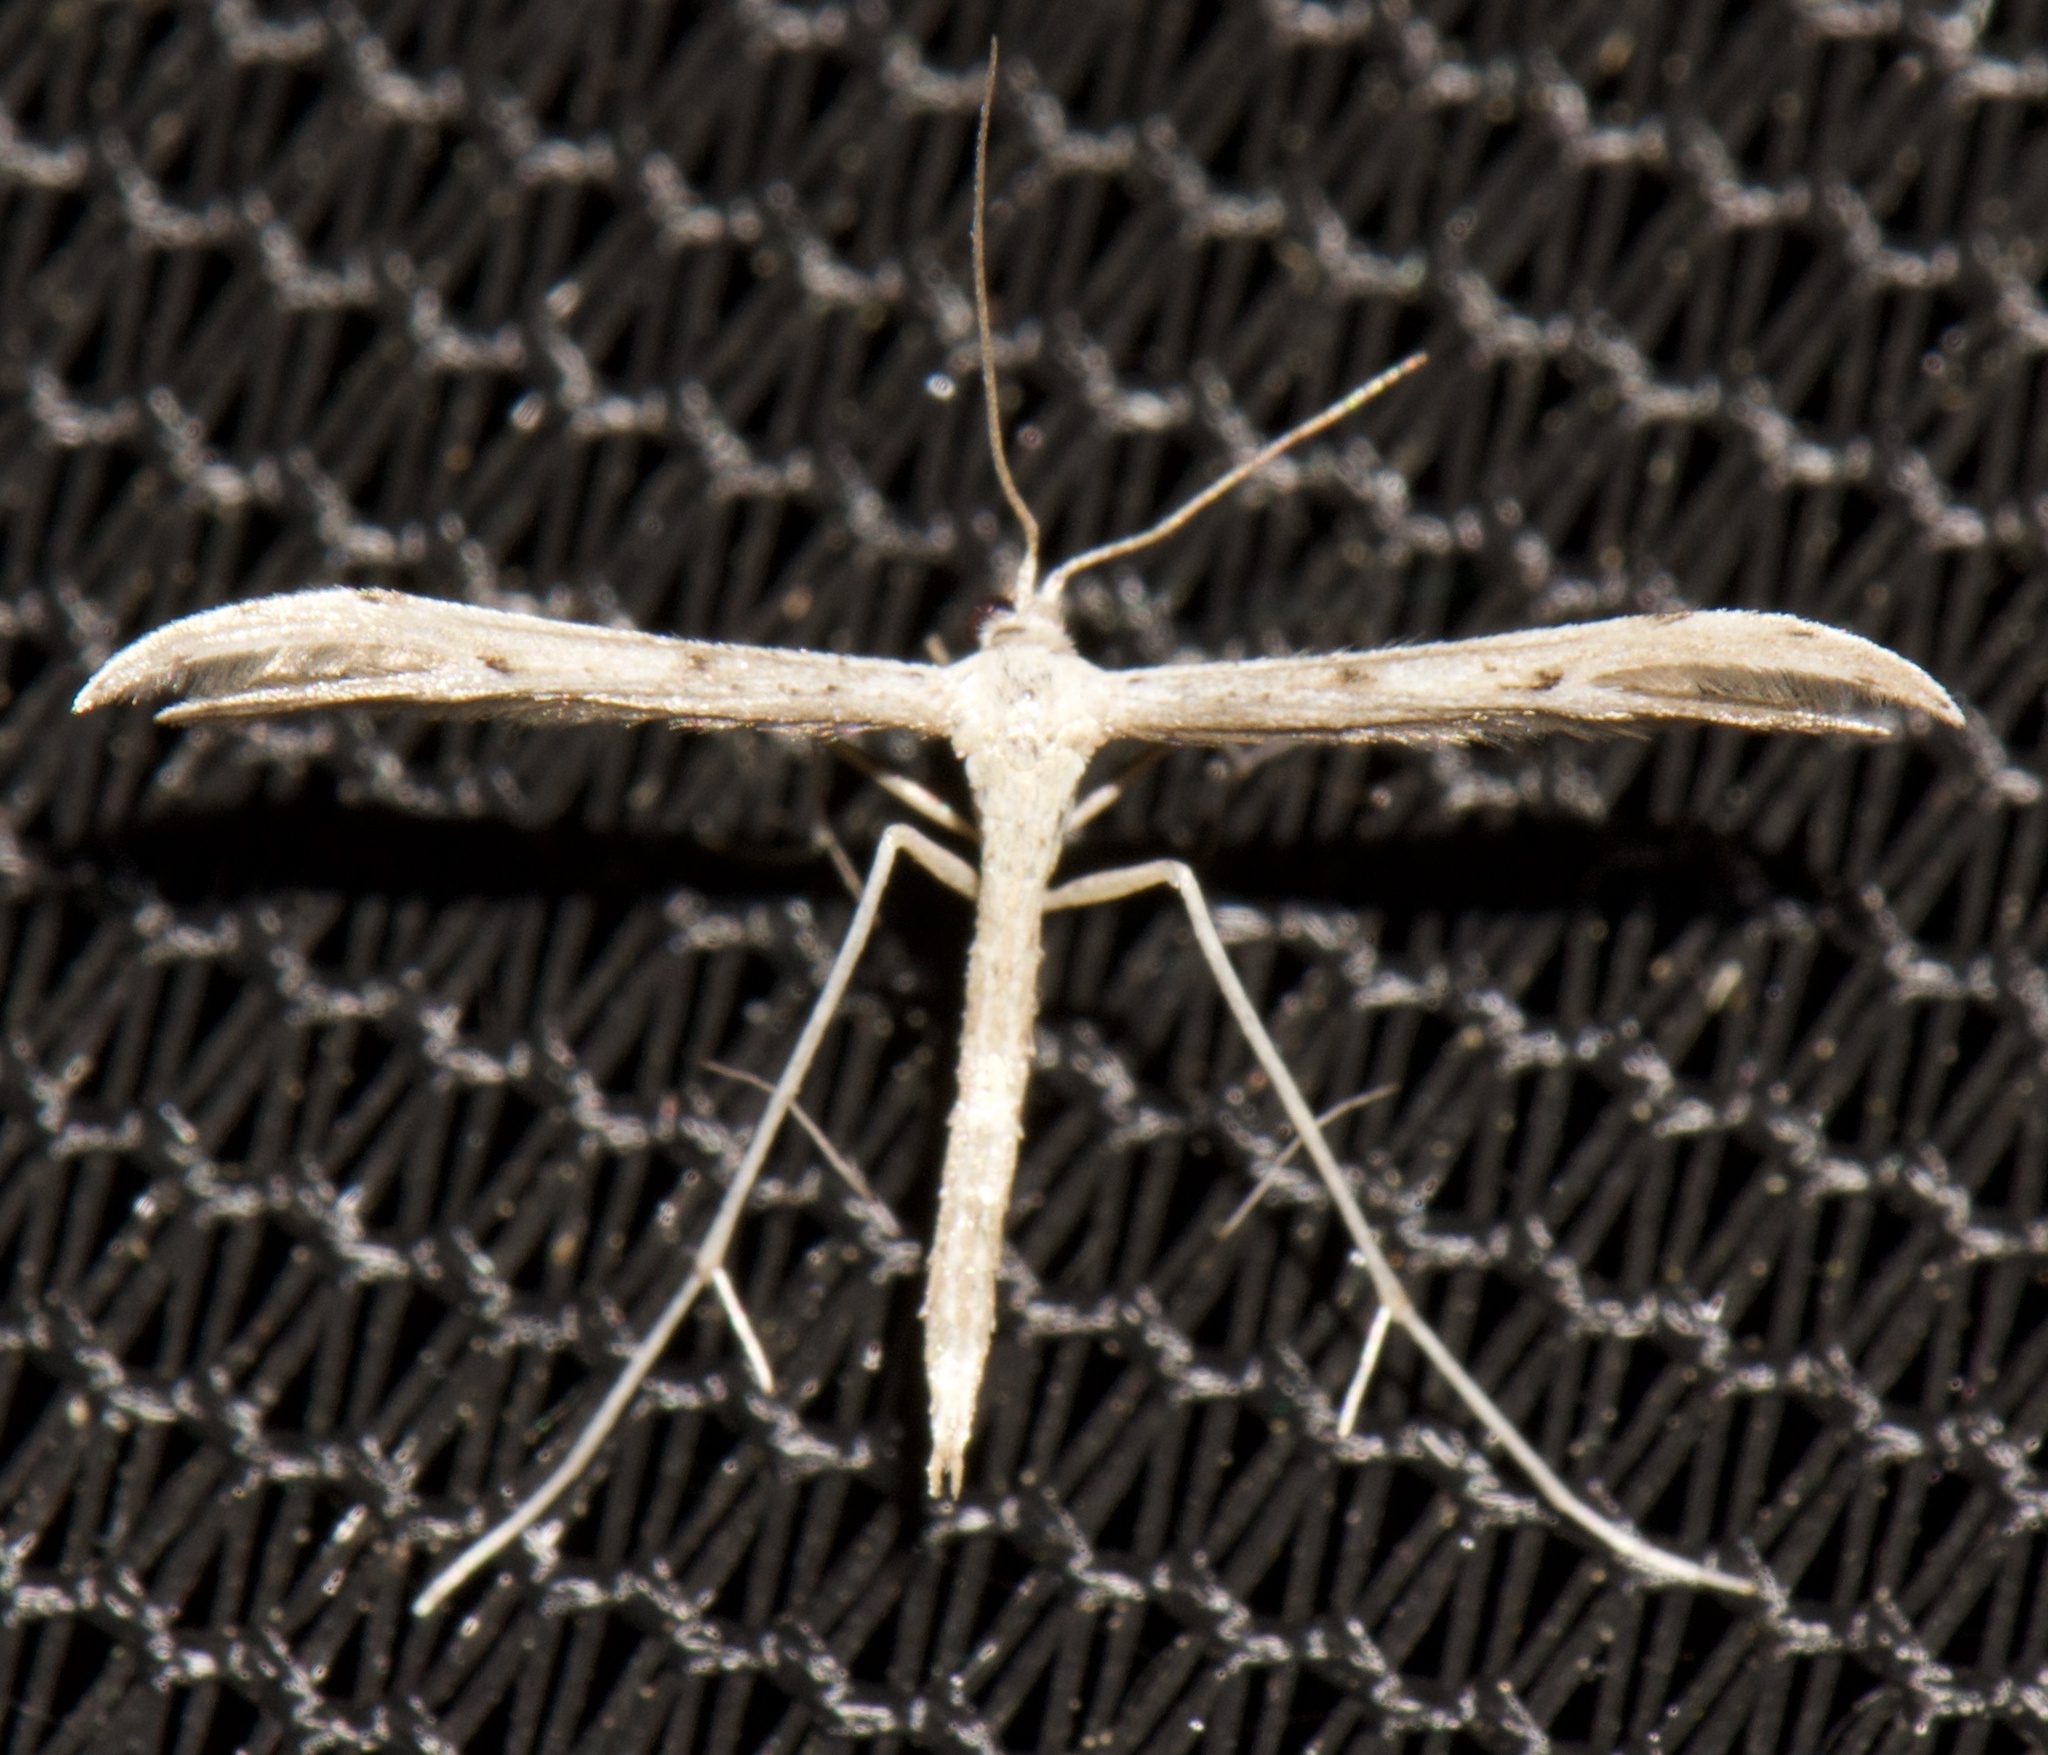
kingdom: Animalia
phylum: Arthropoda
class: Insecta
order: Lepidoptera
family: Pterophoridae
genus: Pselnophorus
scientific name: Pselnophorus belfragei
